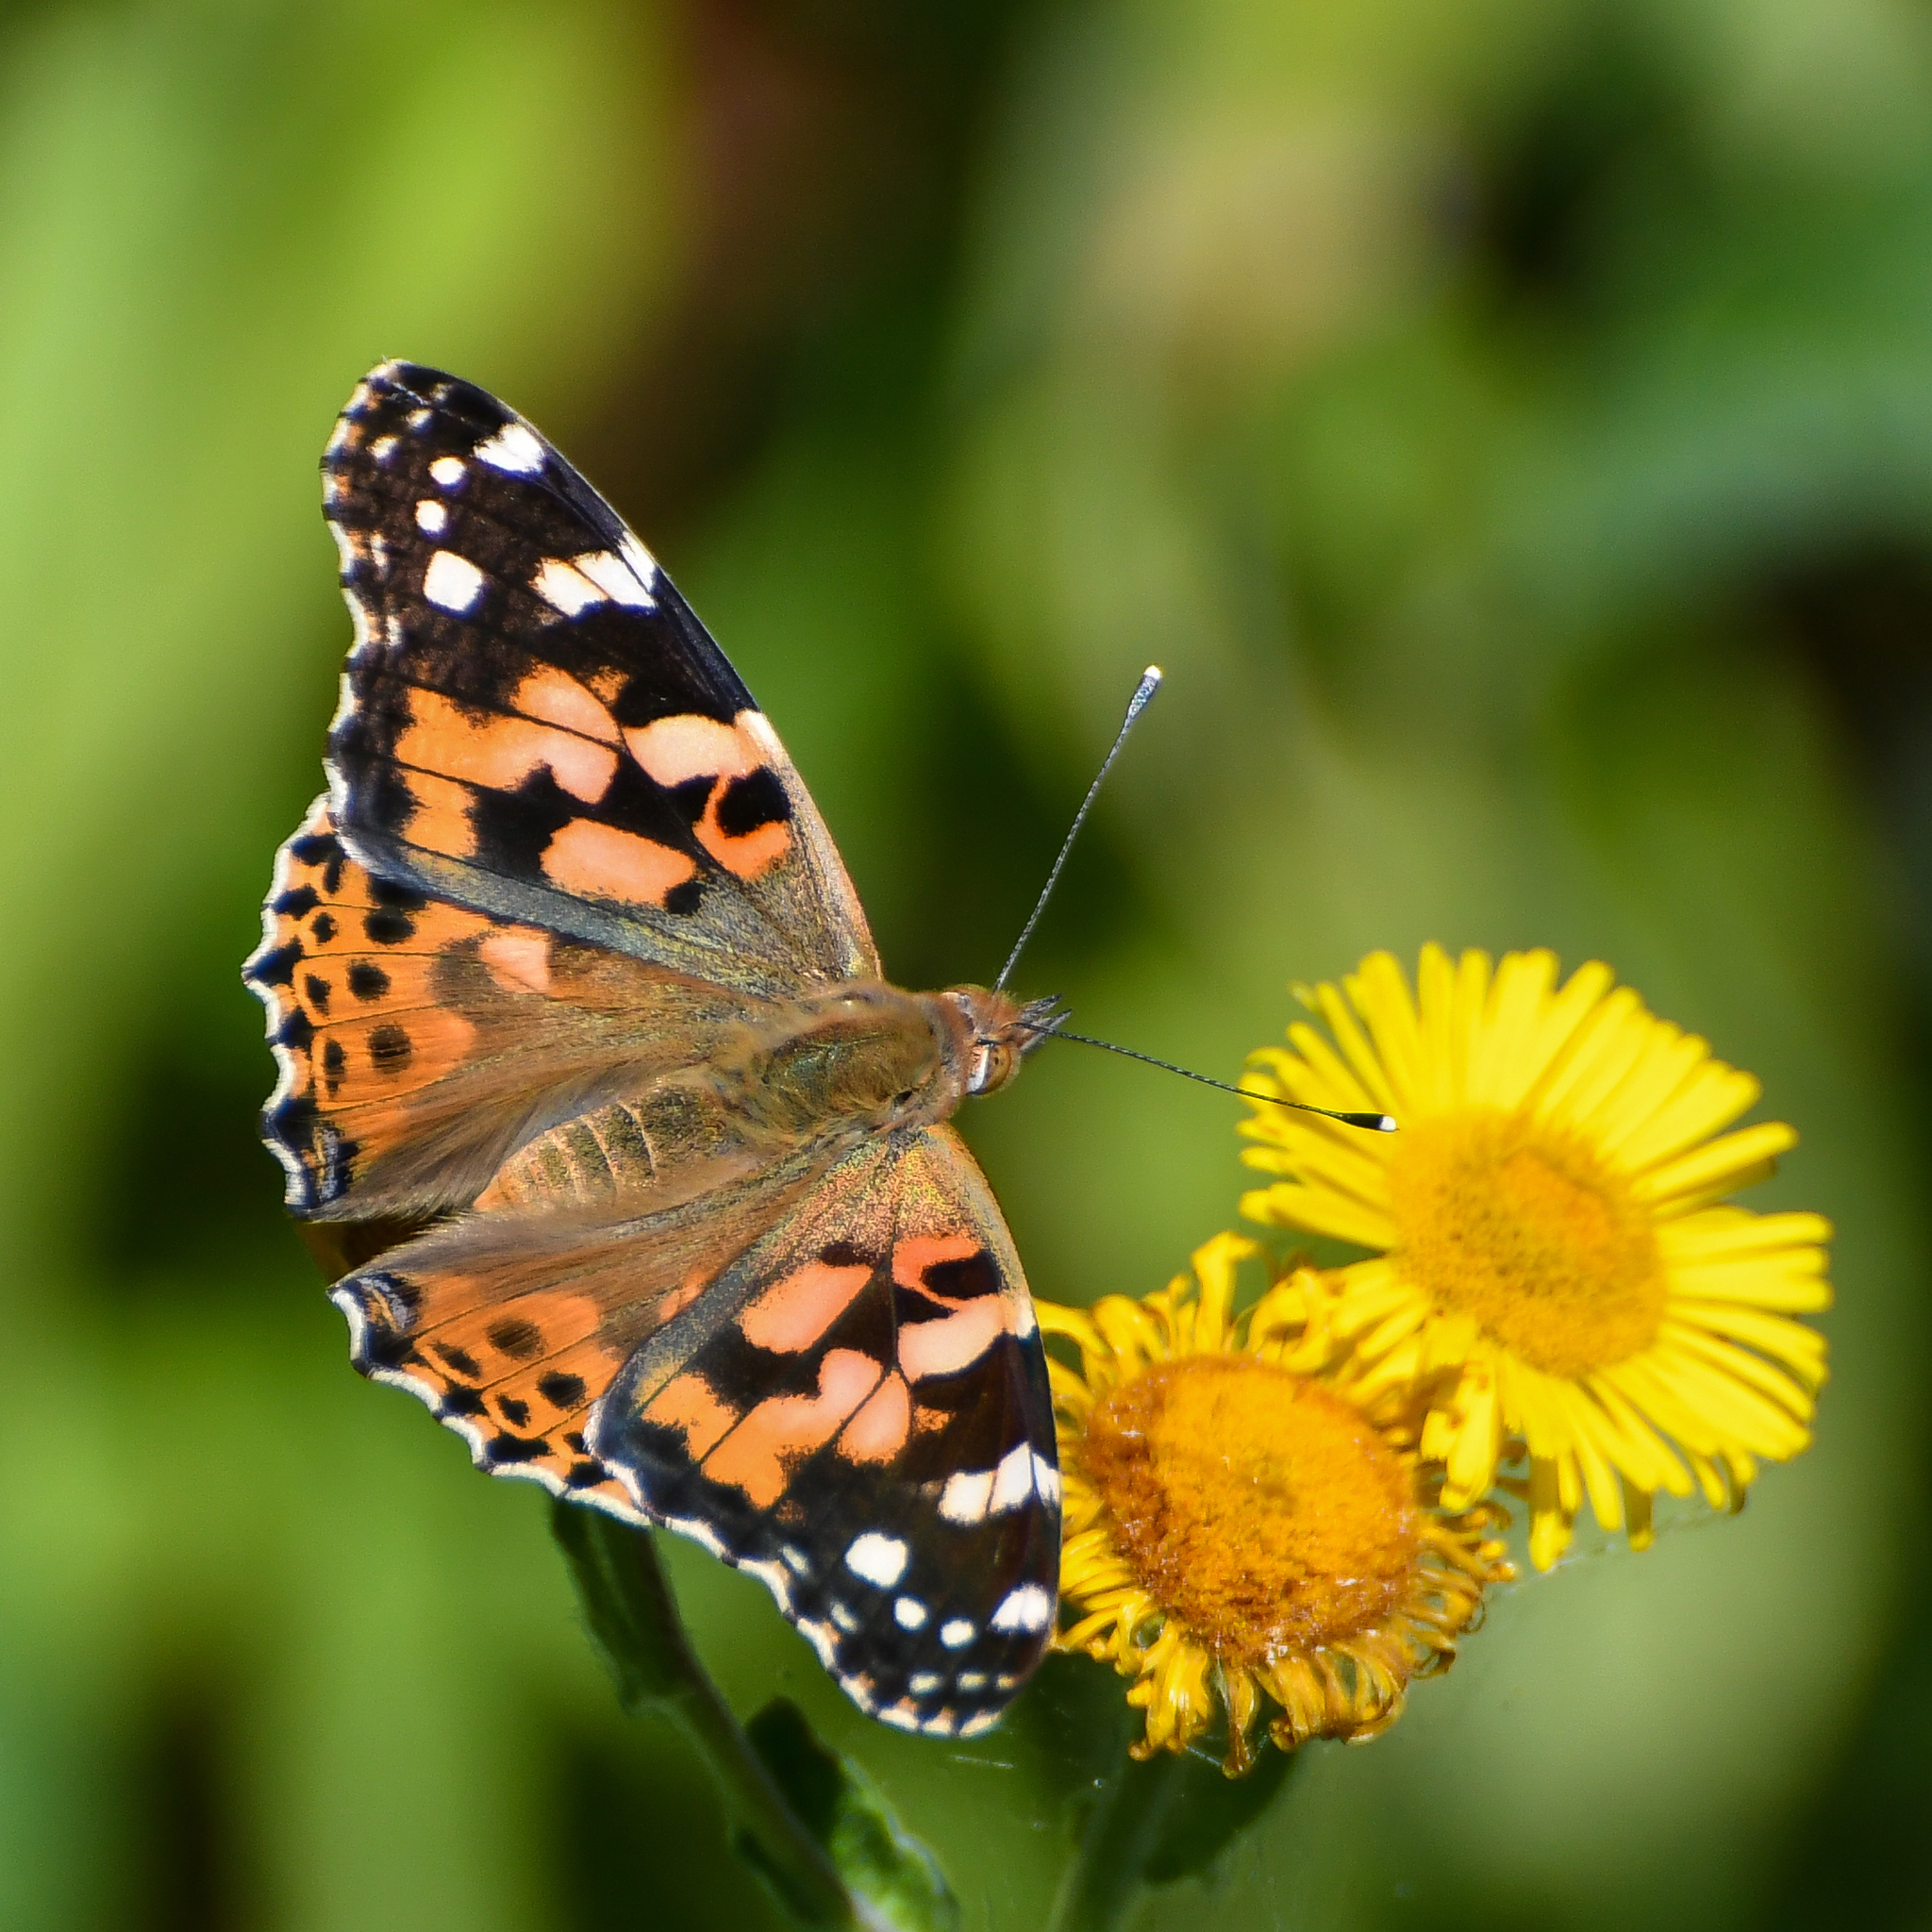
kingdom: Animalia
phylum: Arthropoda
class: Insecta
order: Lepidoptera
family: Nymphalidae
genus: Vanessa
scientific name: Vanessa cardui
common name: Painted lady
